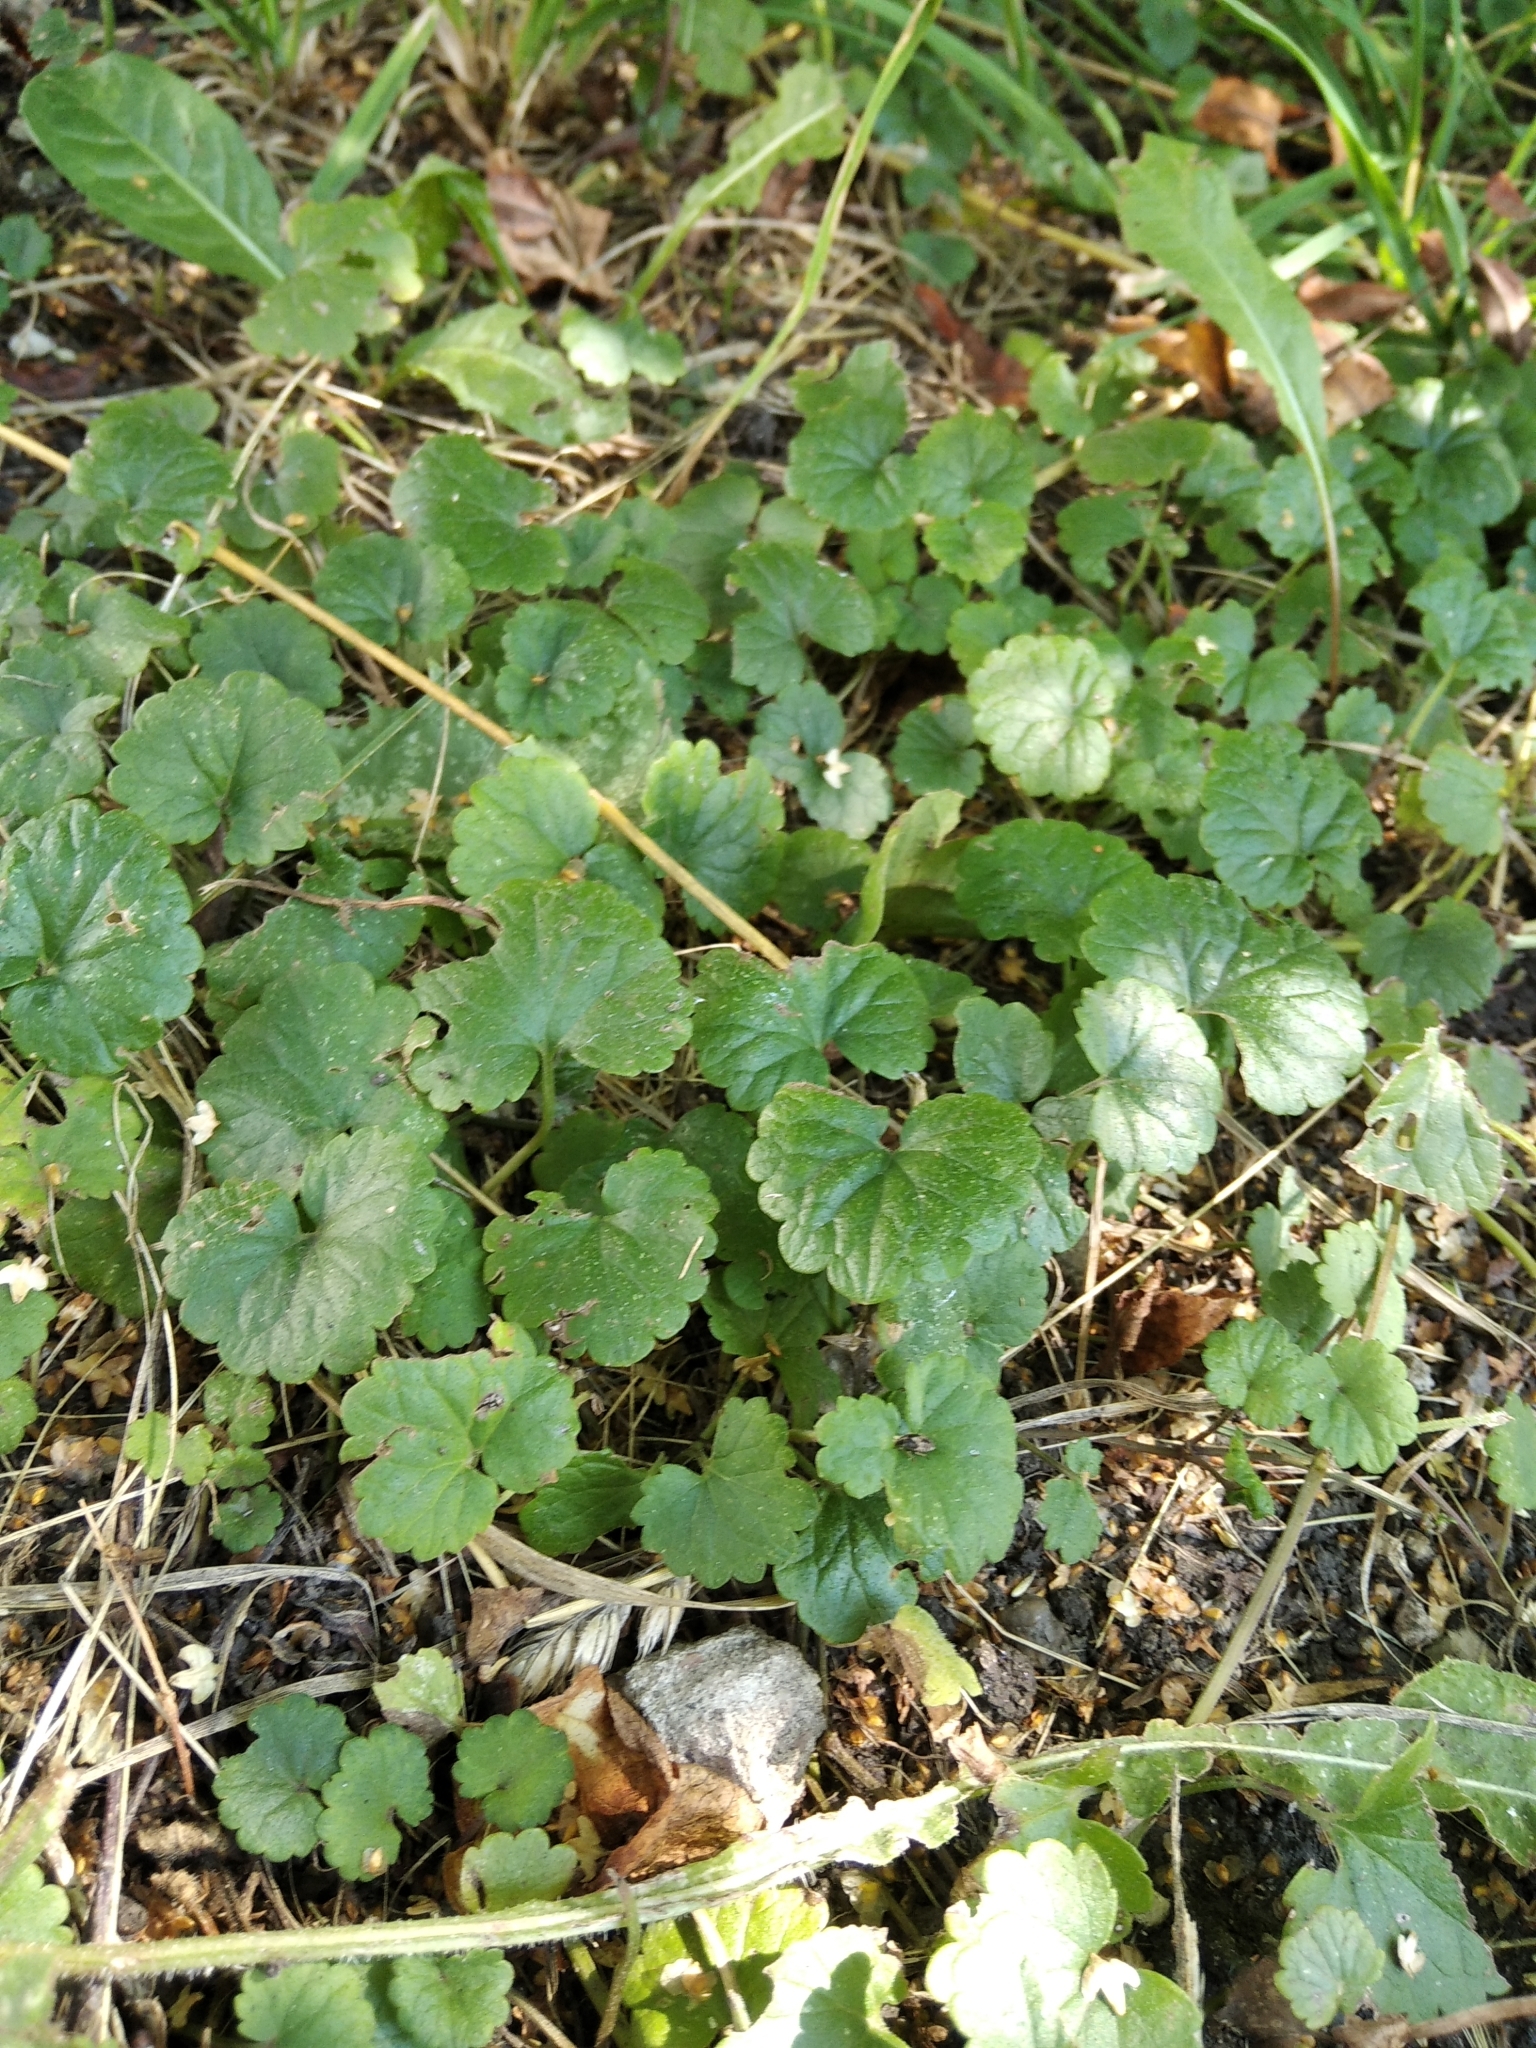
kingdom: Plantae
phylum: Tracheophyta
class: Magnoliopsida
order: Lamiales
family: Lamiaceae
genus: Glechoma
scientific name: Glechoma hederacea
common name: Ground ivy
